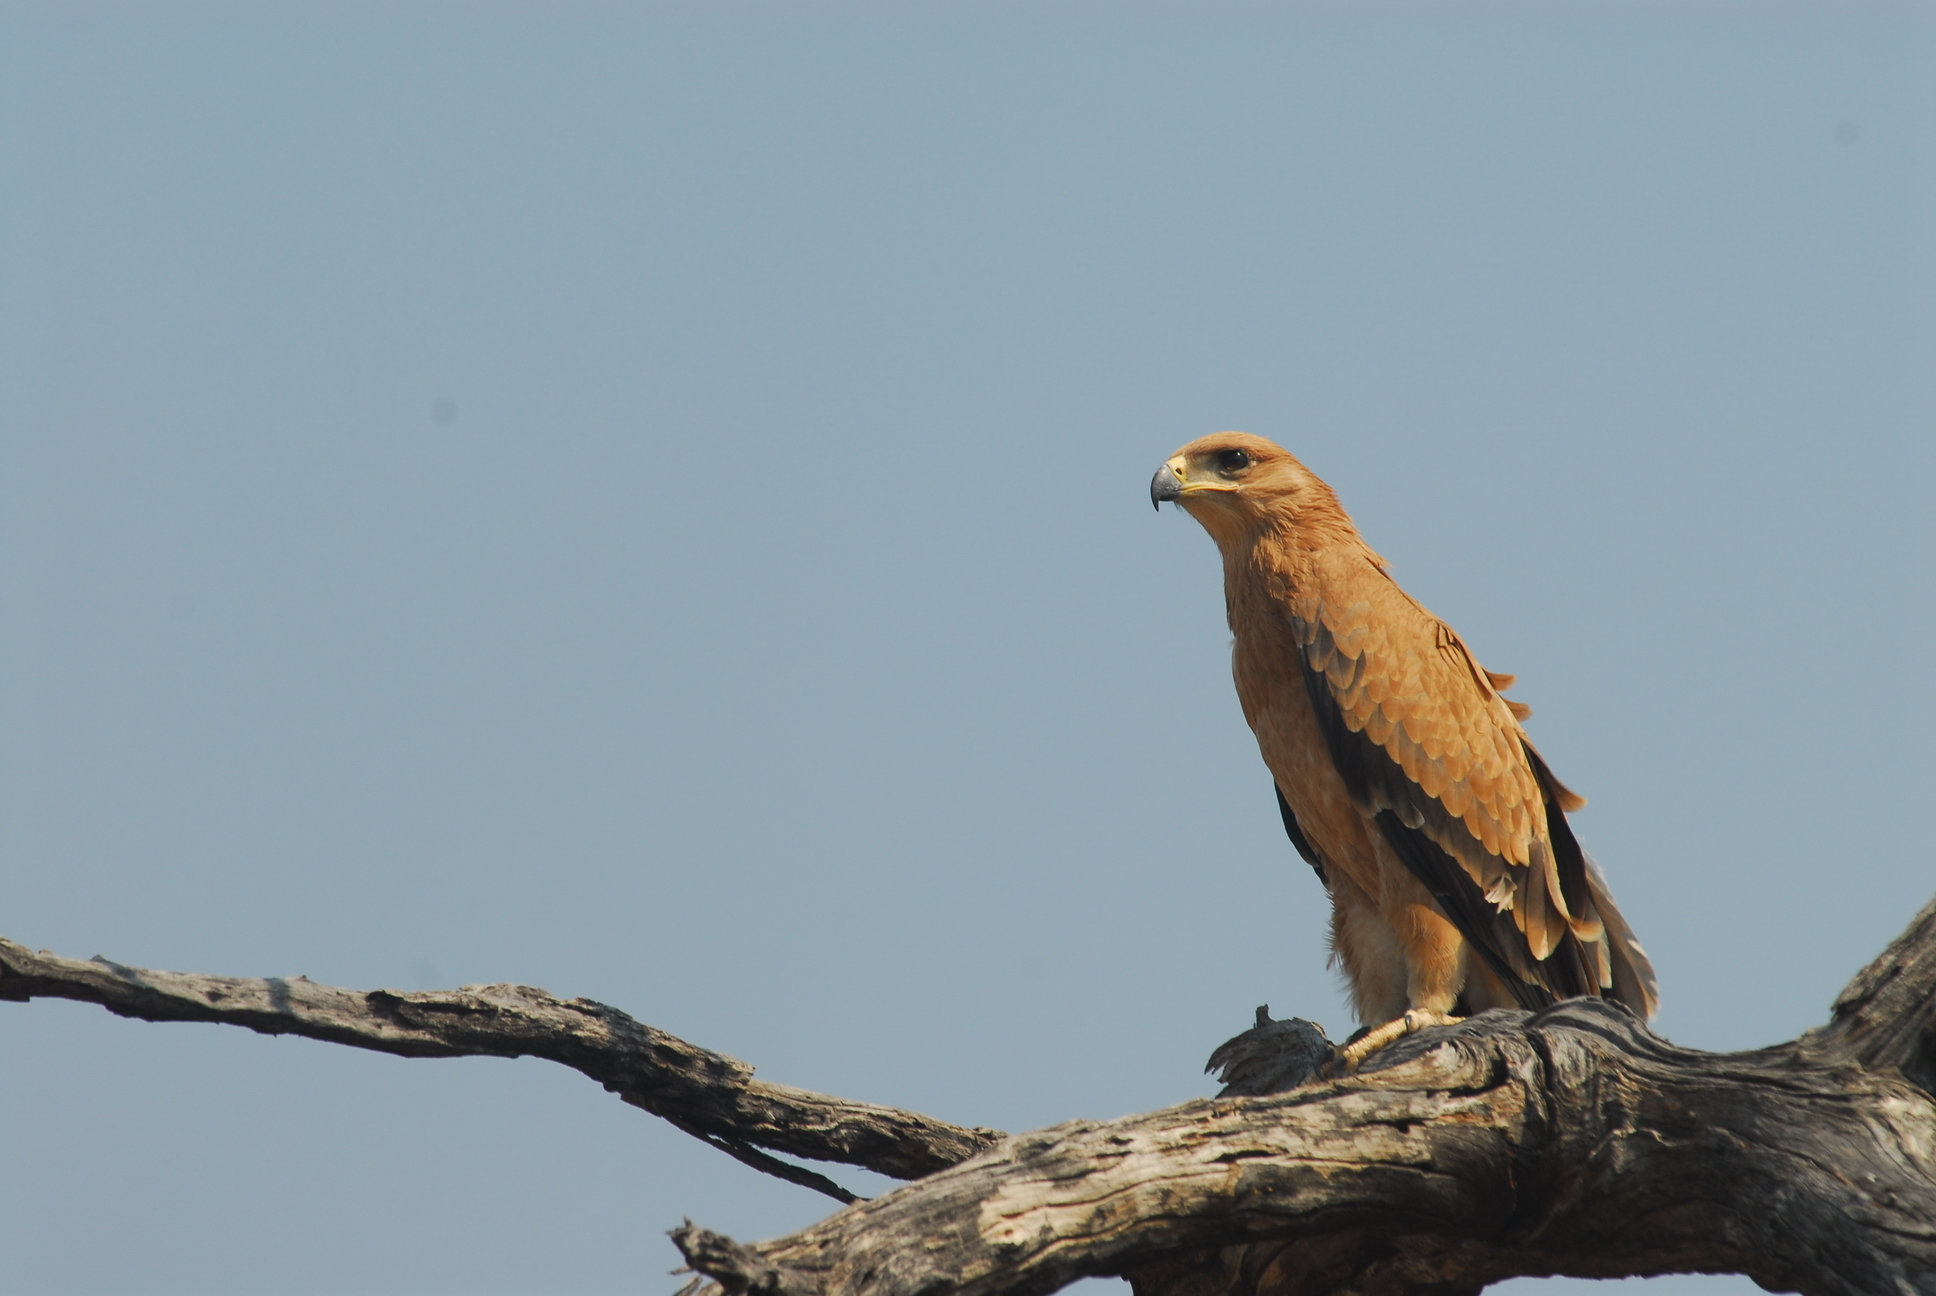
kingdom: Animalia
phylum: Chordata
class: Aves
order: Accipitriformes
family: Accipitridae
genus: Aquila
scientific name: Aquila rapax
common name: Tawny eagle
